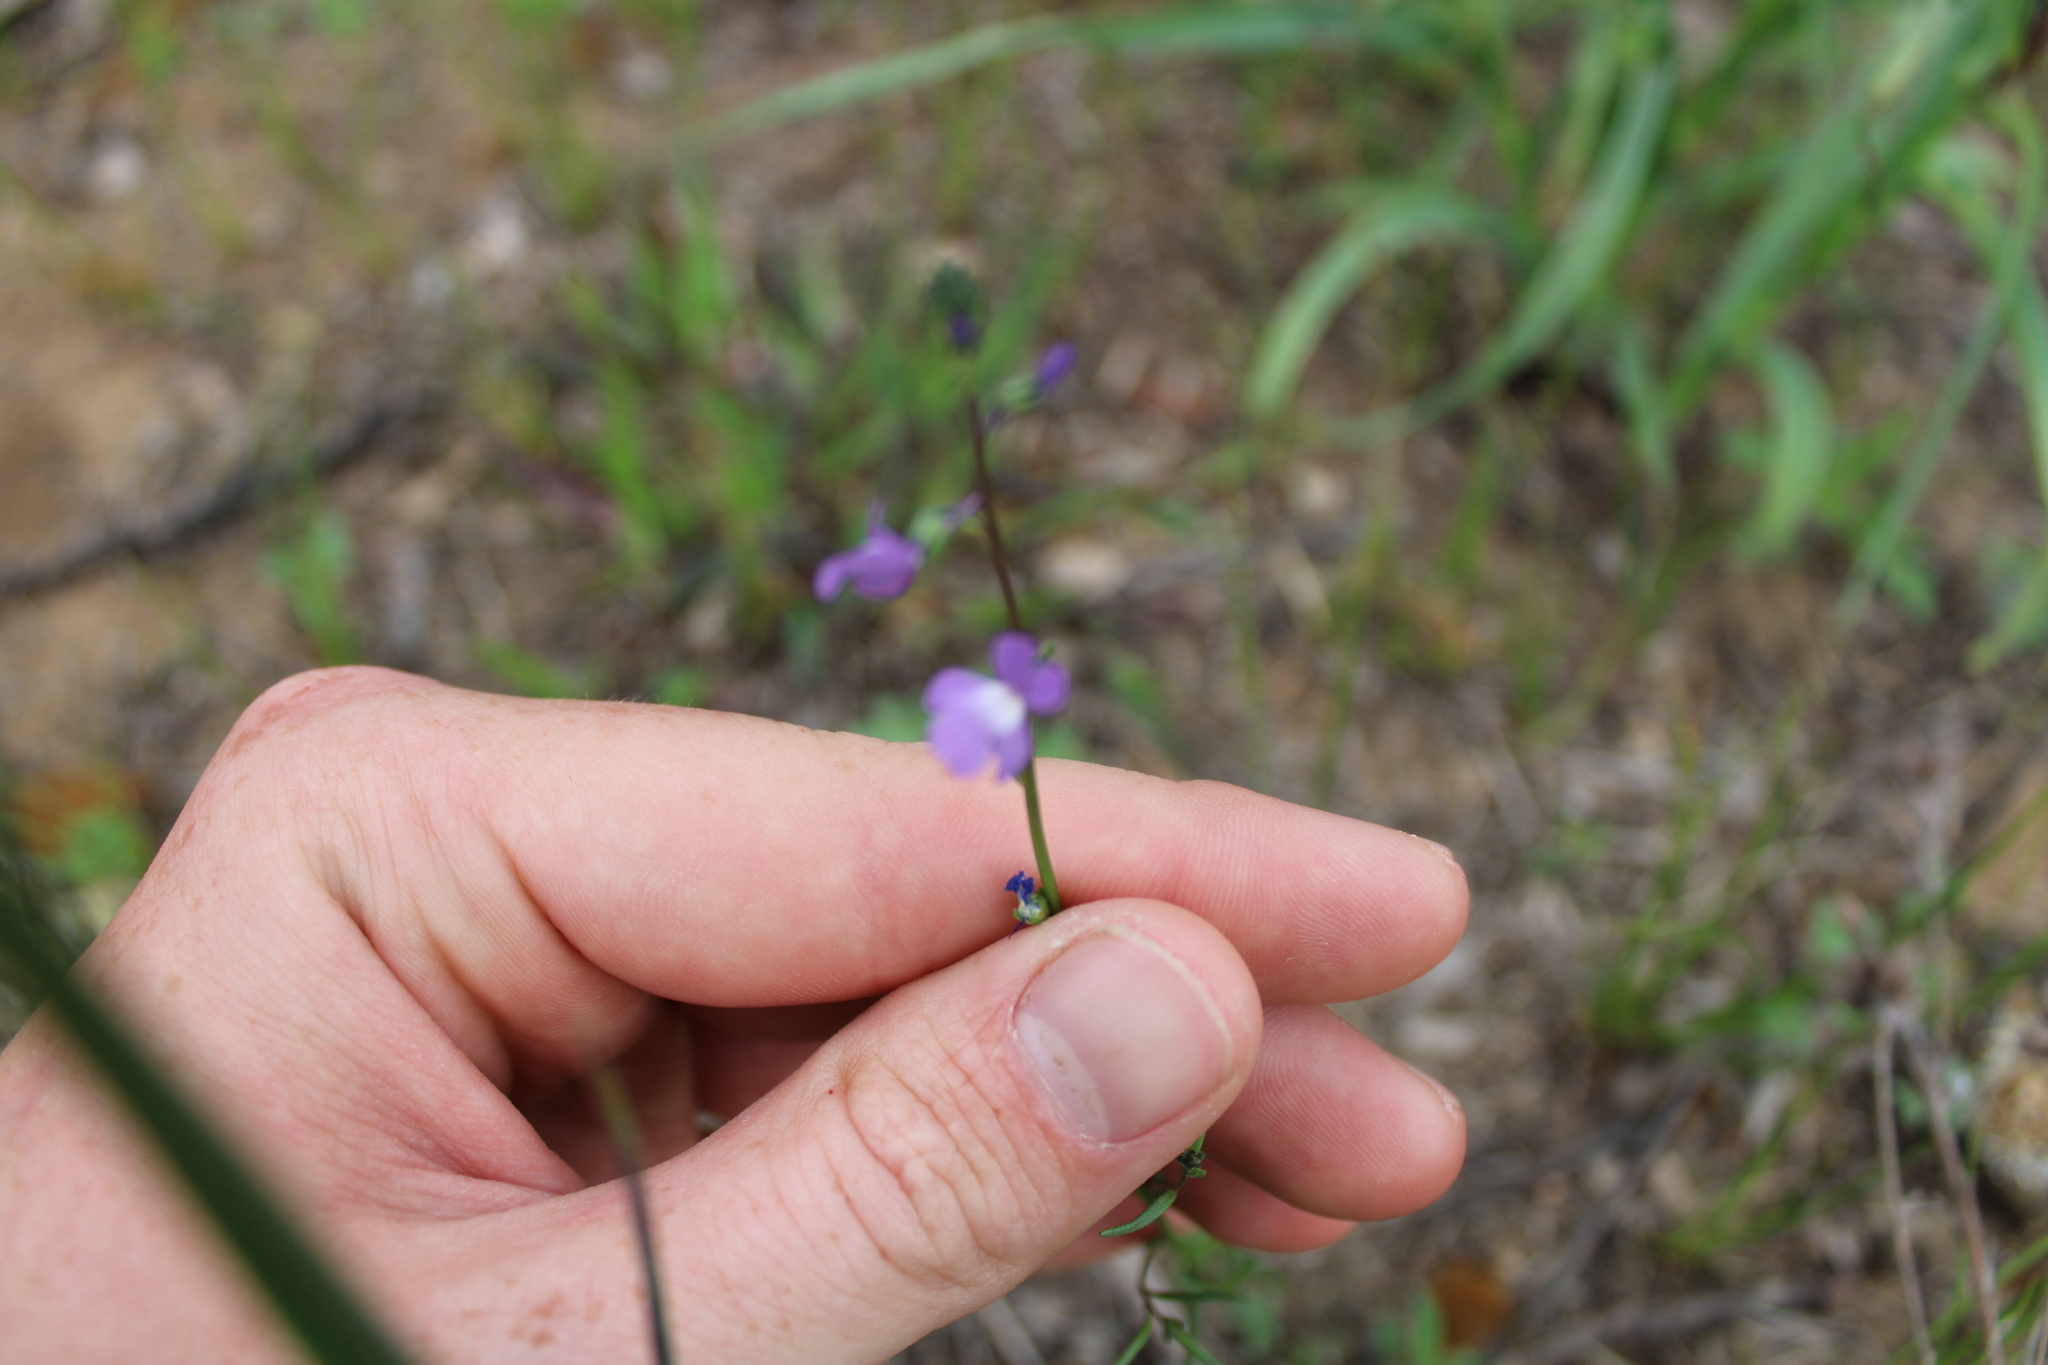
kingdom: Plantae
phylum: Tracheophyta
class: Magnoliopsida
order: Lamiales
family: Plantaginaceae
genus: Nuttallanthus
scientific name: Nuttallanthus canadensis
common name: Blue toadflax
